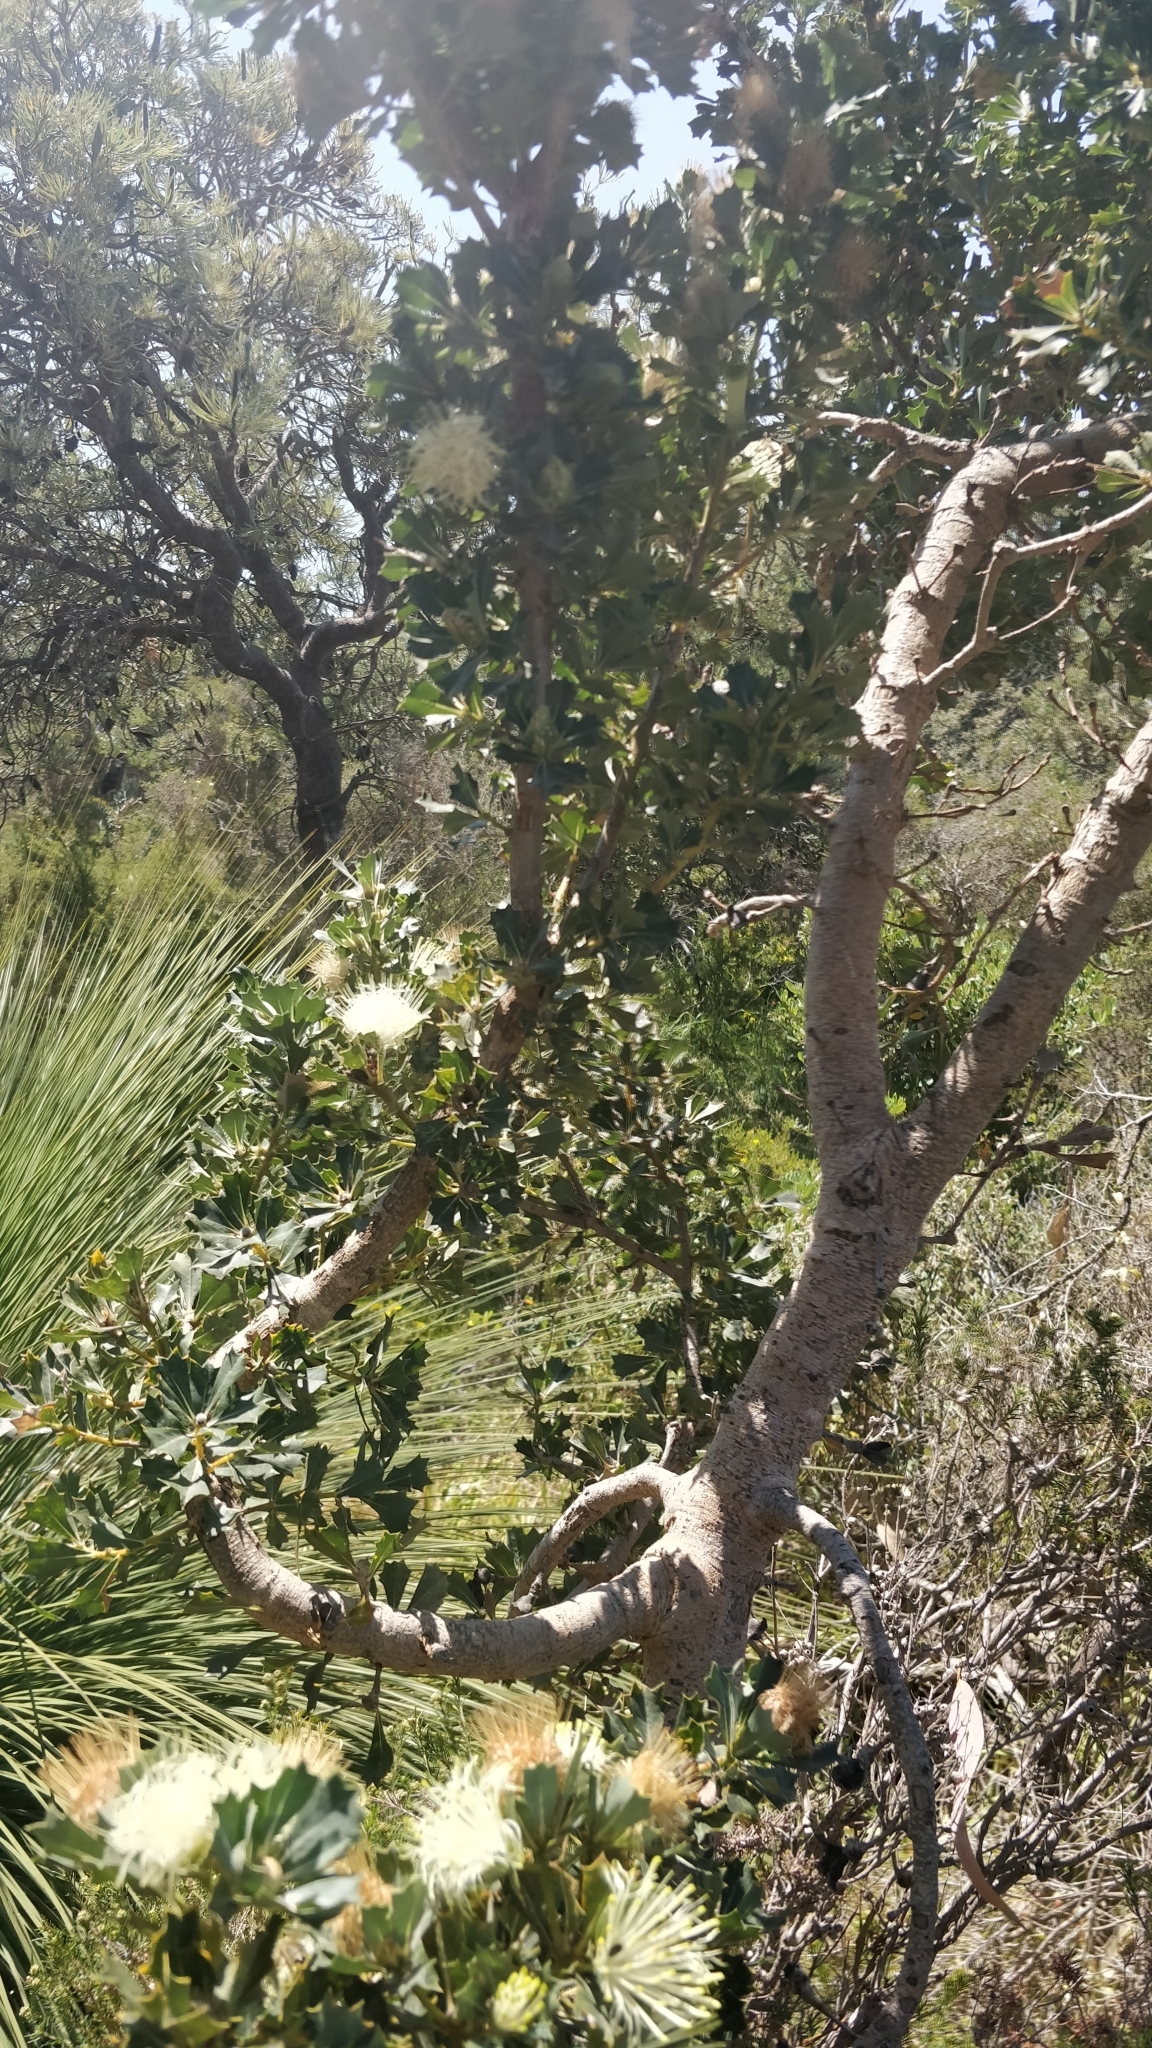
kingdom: Plantae
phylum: Tracheophyta
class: Magnoliopsida
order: Proteales
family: Proteaceae
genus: Banksia
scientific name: Banksia sessilis
